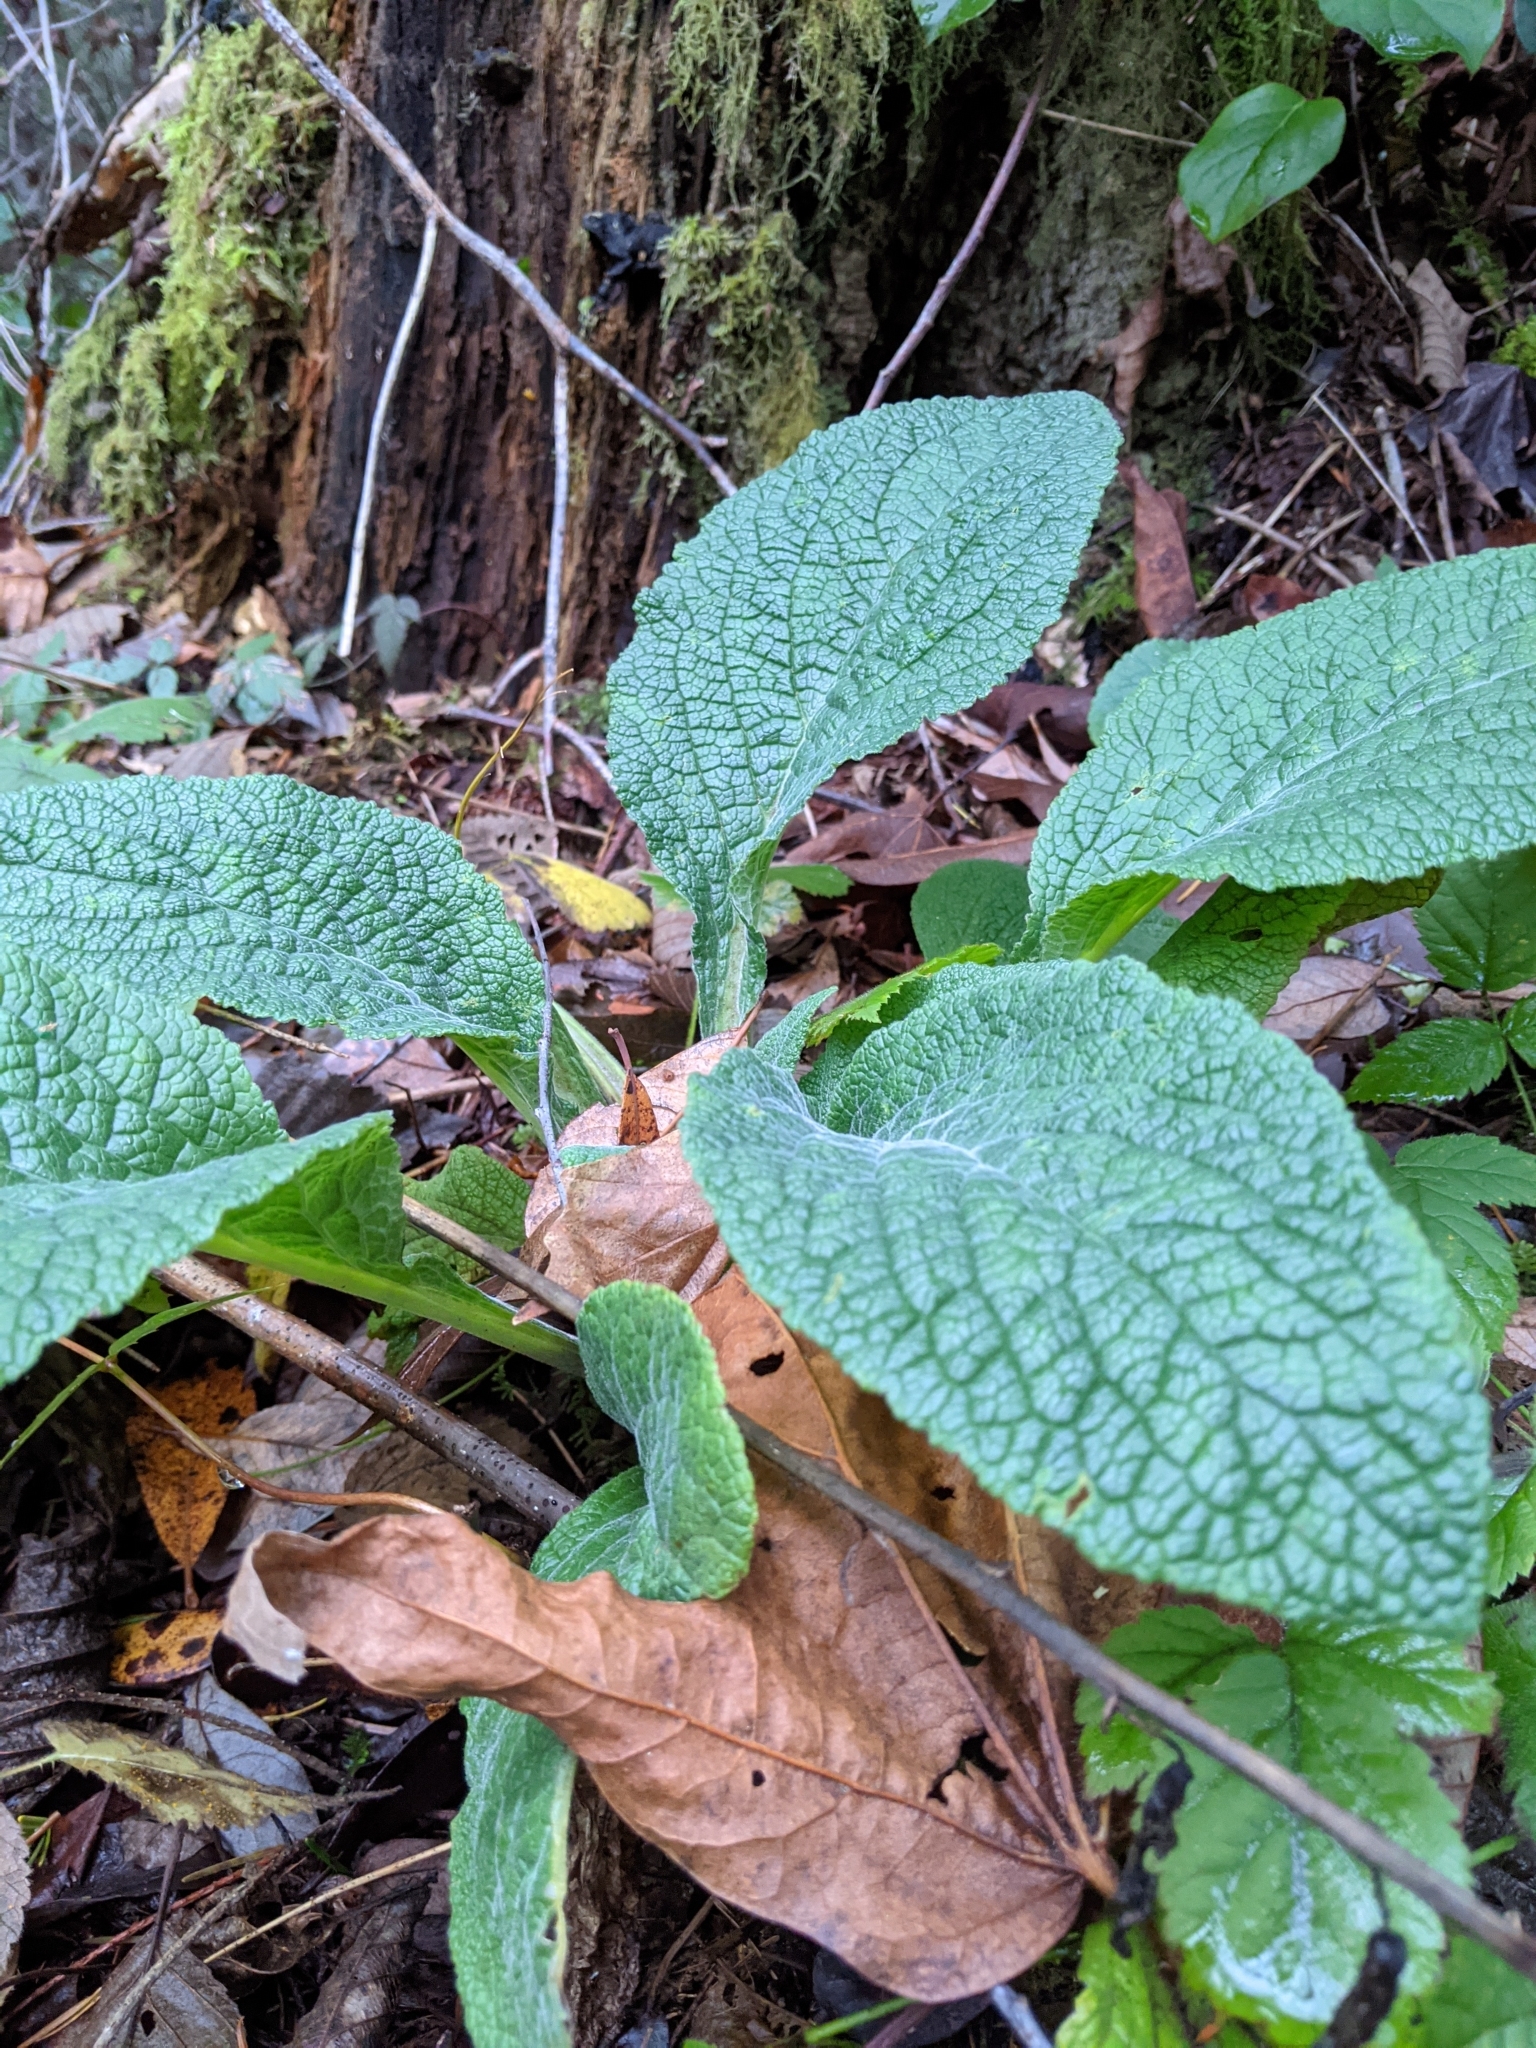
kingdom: Plantae
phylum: Tracheophyta
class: Magnoliopsida
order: Lamiales
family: Plantaginaceae
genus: Digitalis
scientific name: Digitalis purpurea
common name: Foxglove
